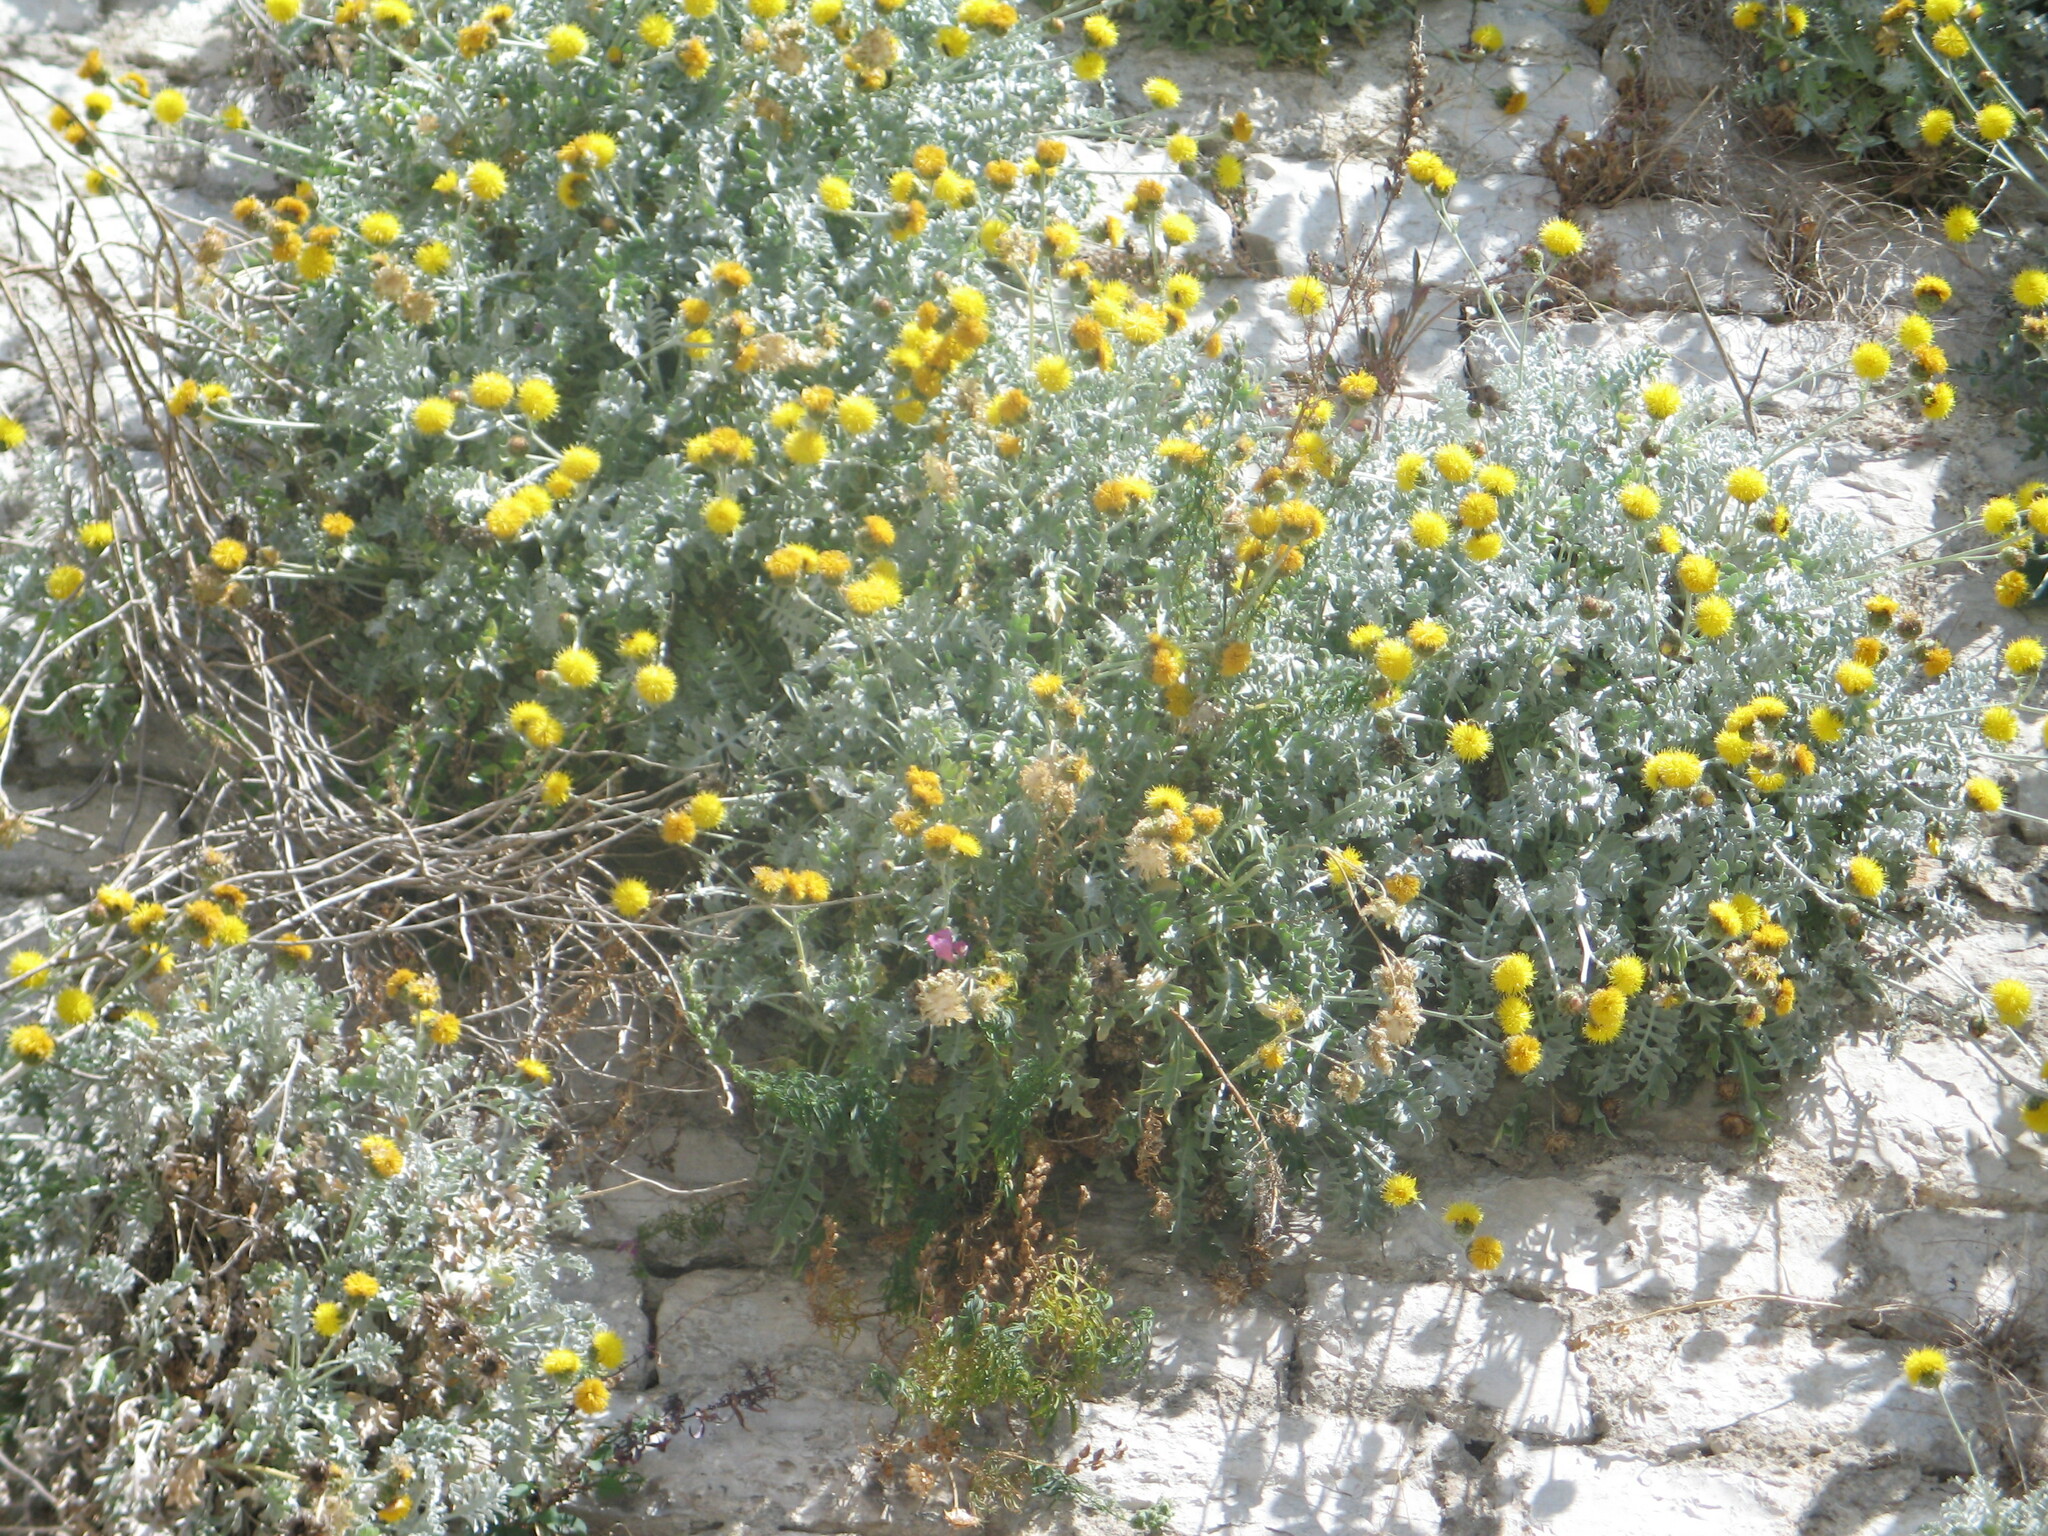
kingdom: Plantae
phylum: Tracheophyta
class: Magnoliopsida
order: Asterales
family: Asteraceae
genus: Centaurea
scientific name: Centaurea ragusina
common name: Dusty-miller
